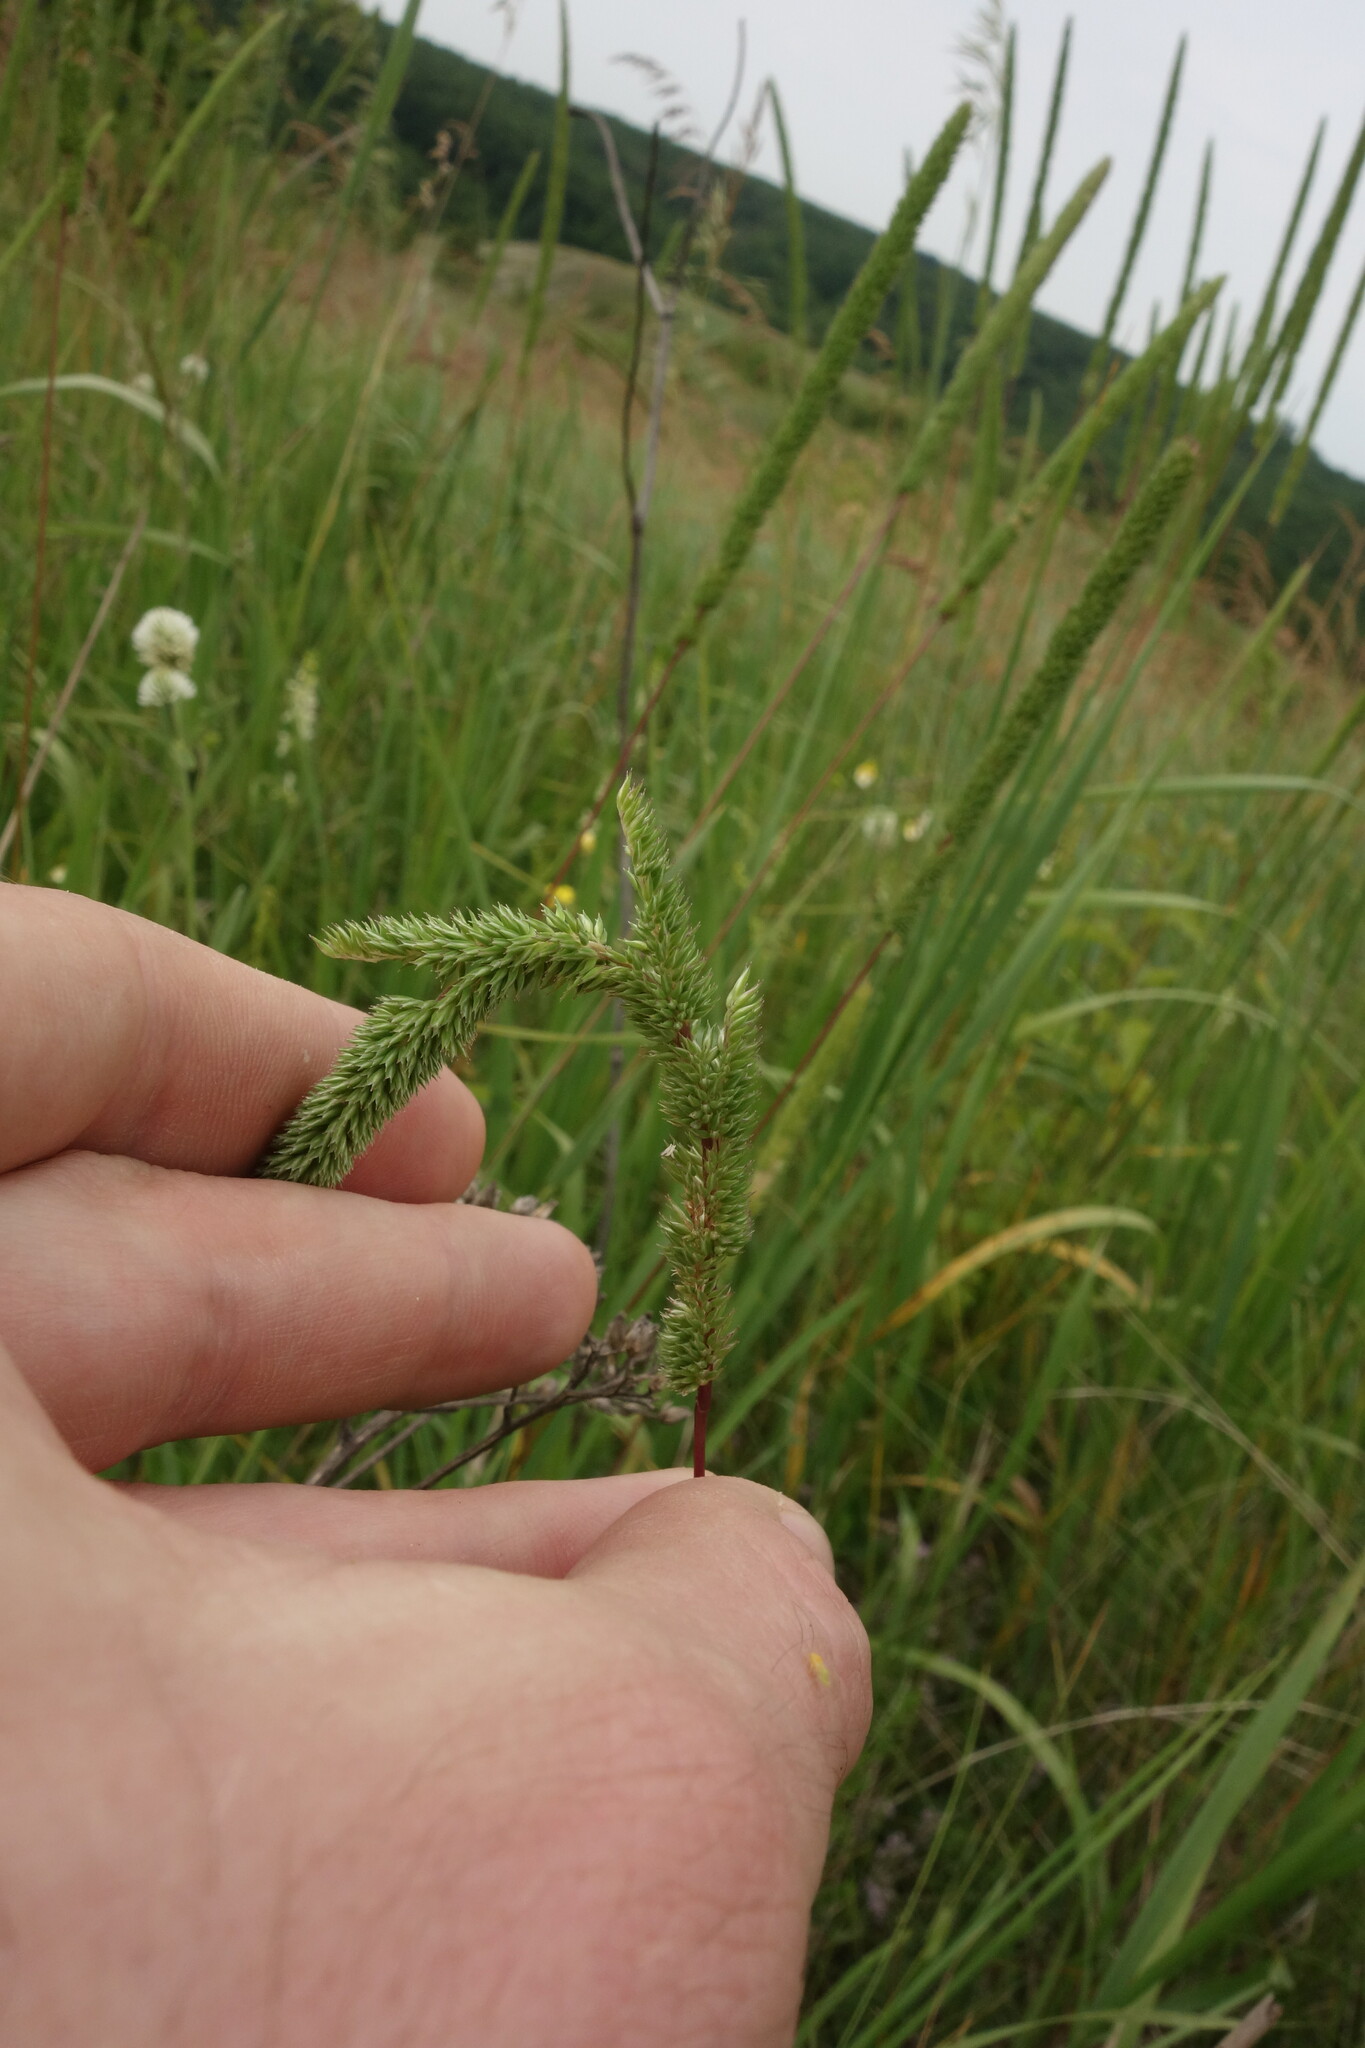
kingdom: Plantae
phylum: Tracheophyta
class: Liliopsida
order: Poales
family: Poaceae
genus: Phleum
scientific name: Phleum phleoides
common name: Purple-stem cat's-tail
